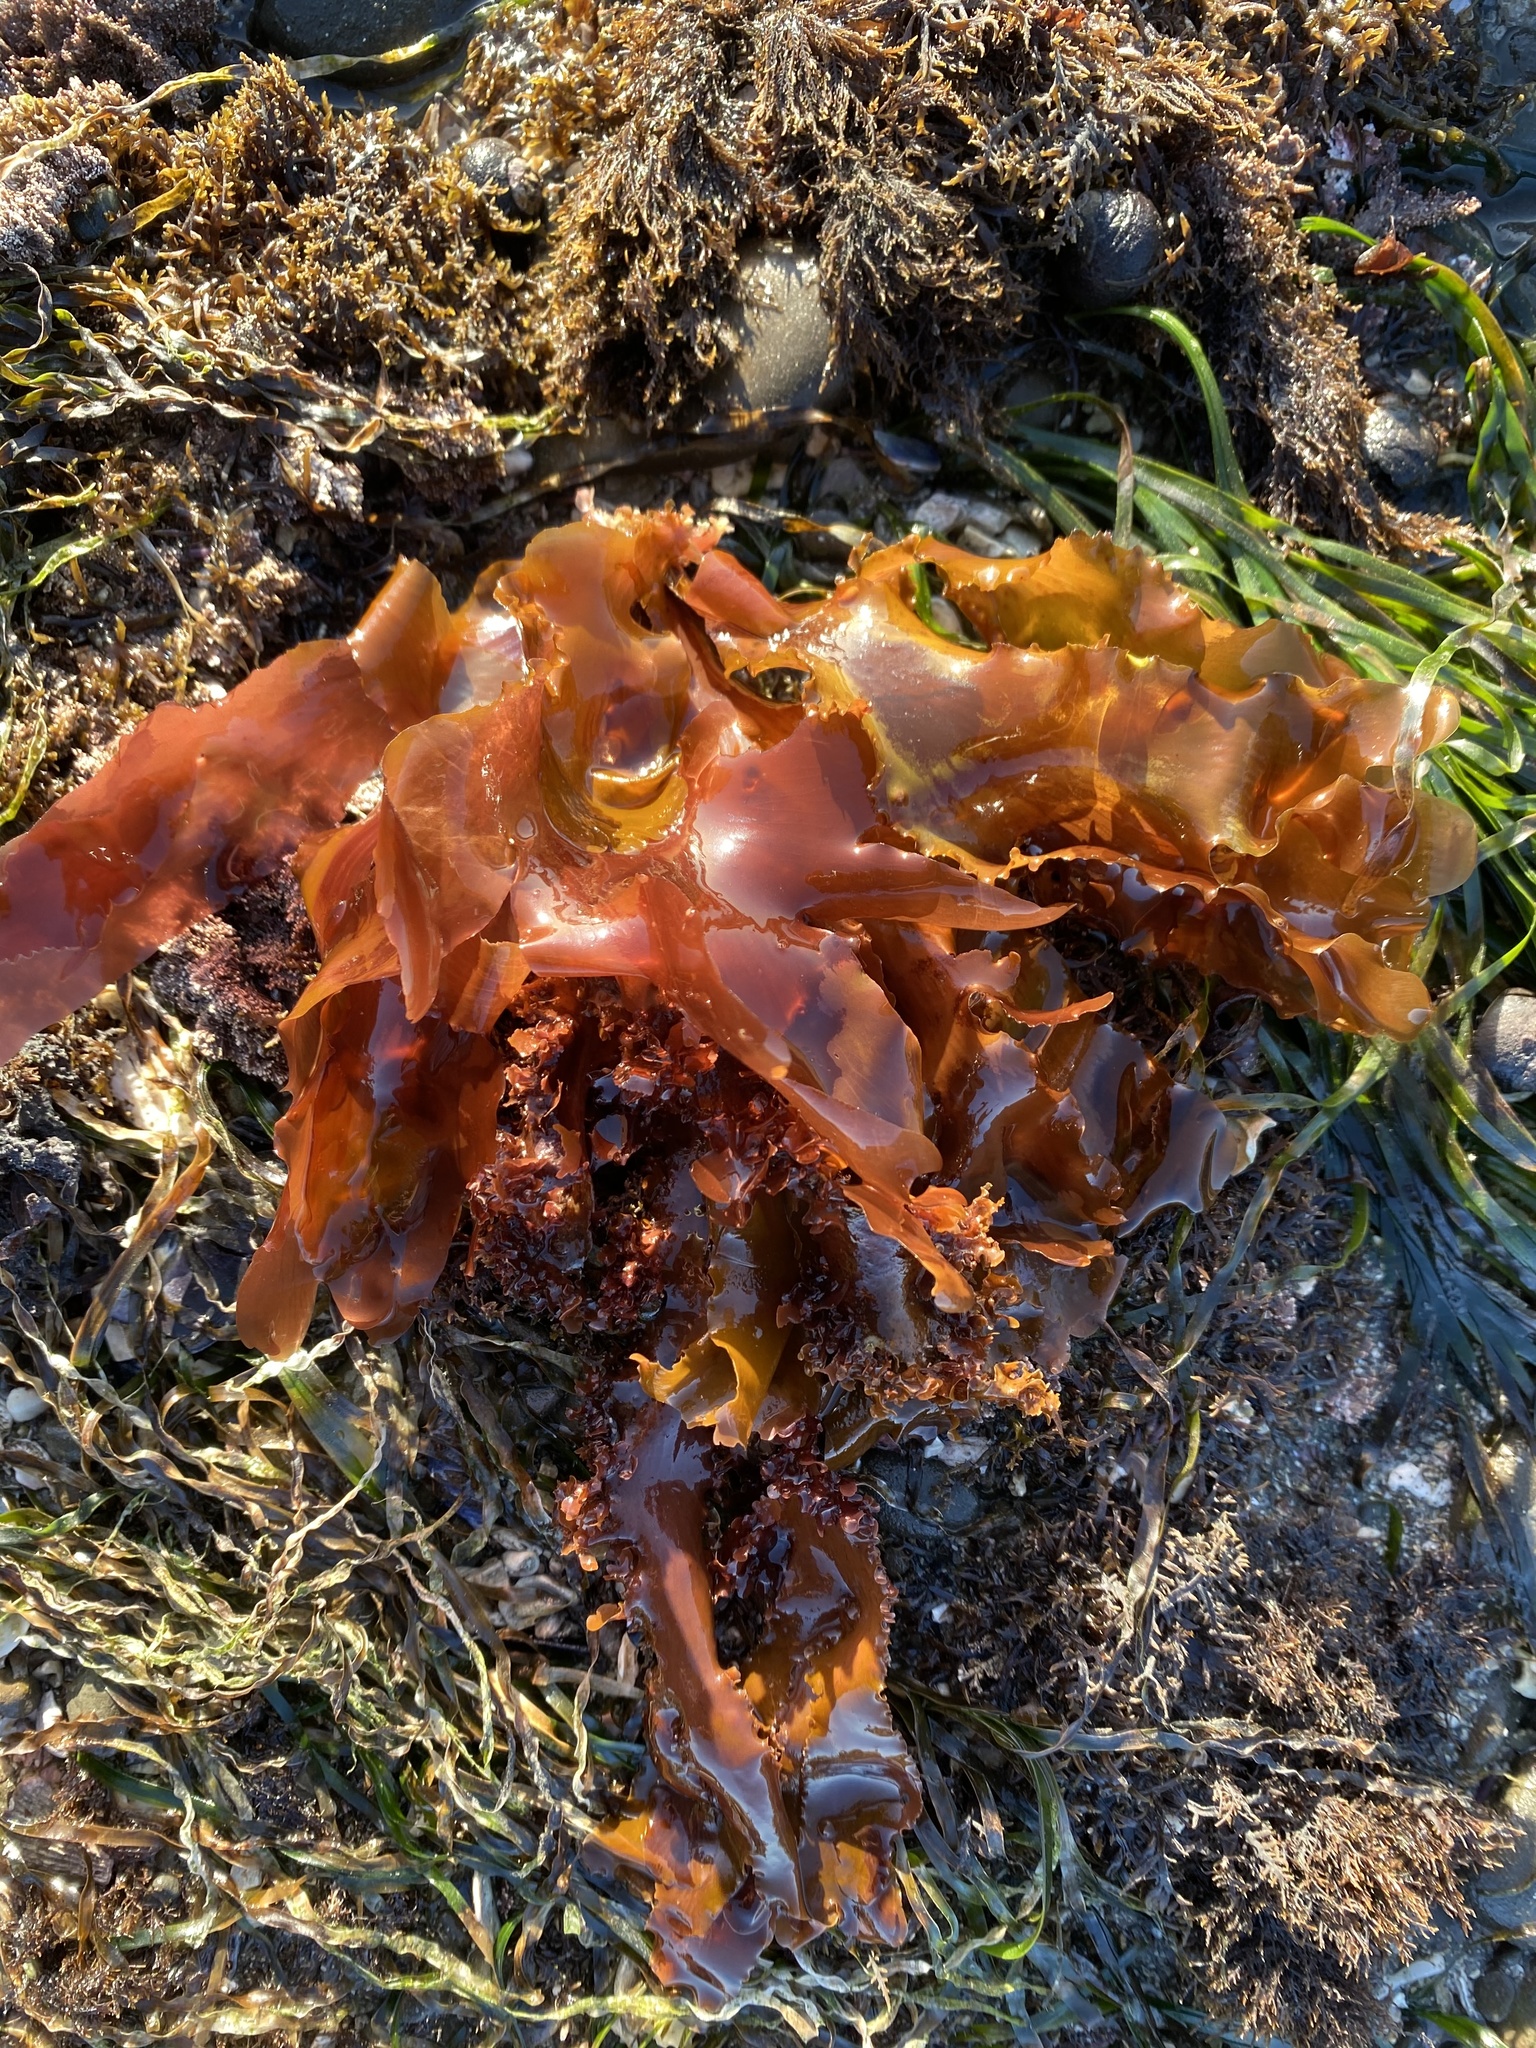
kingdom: Plantae
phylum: Rhodophyta
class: Florideophyceae
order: Ceramiales
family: Delesseriaceae
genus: Cryptopleura
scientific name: Cryptopleura ruprechtiana
